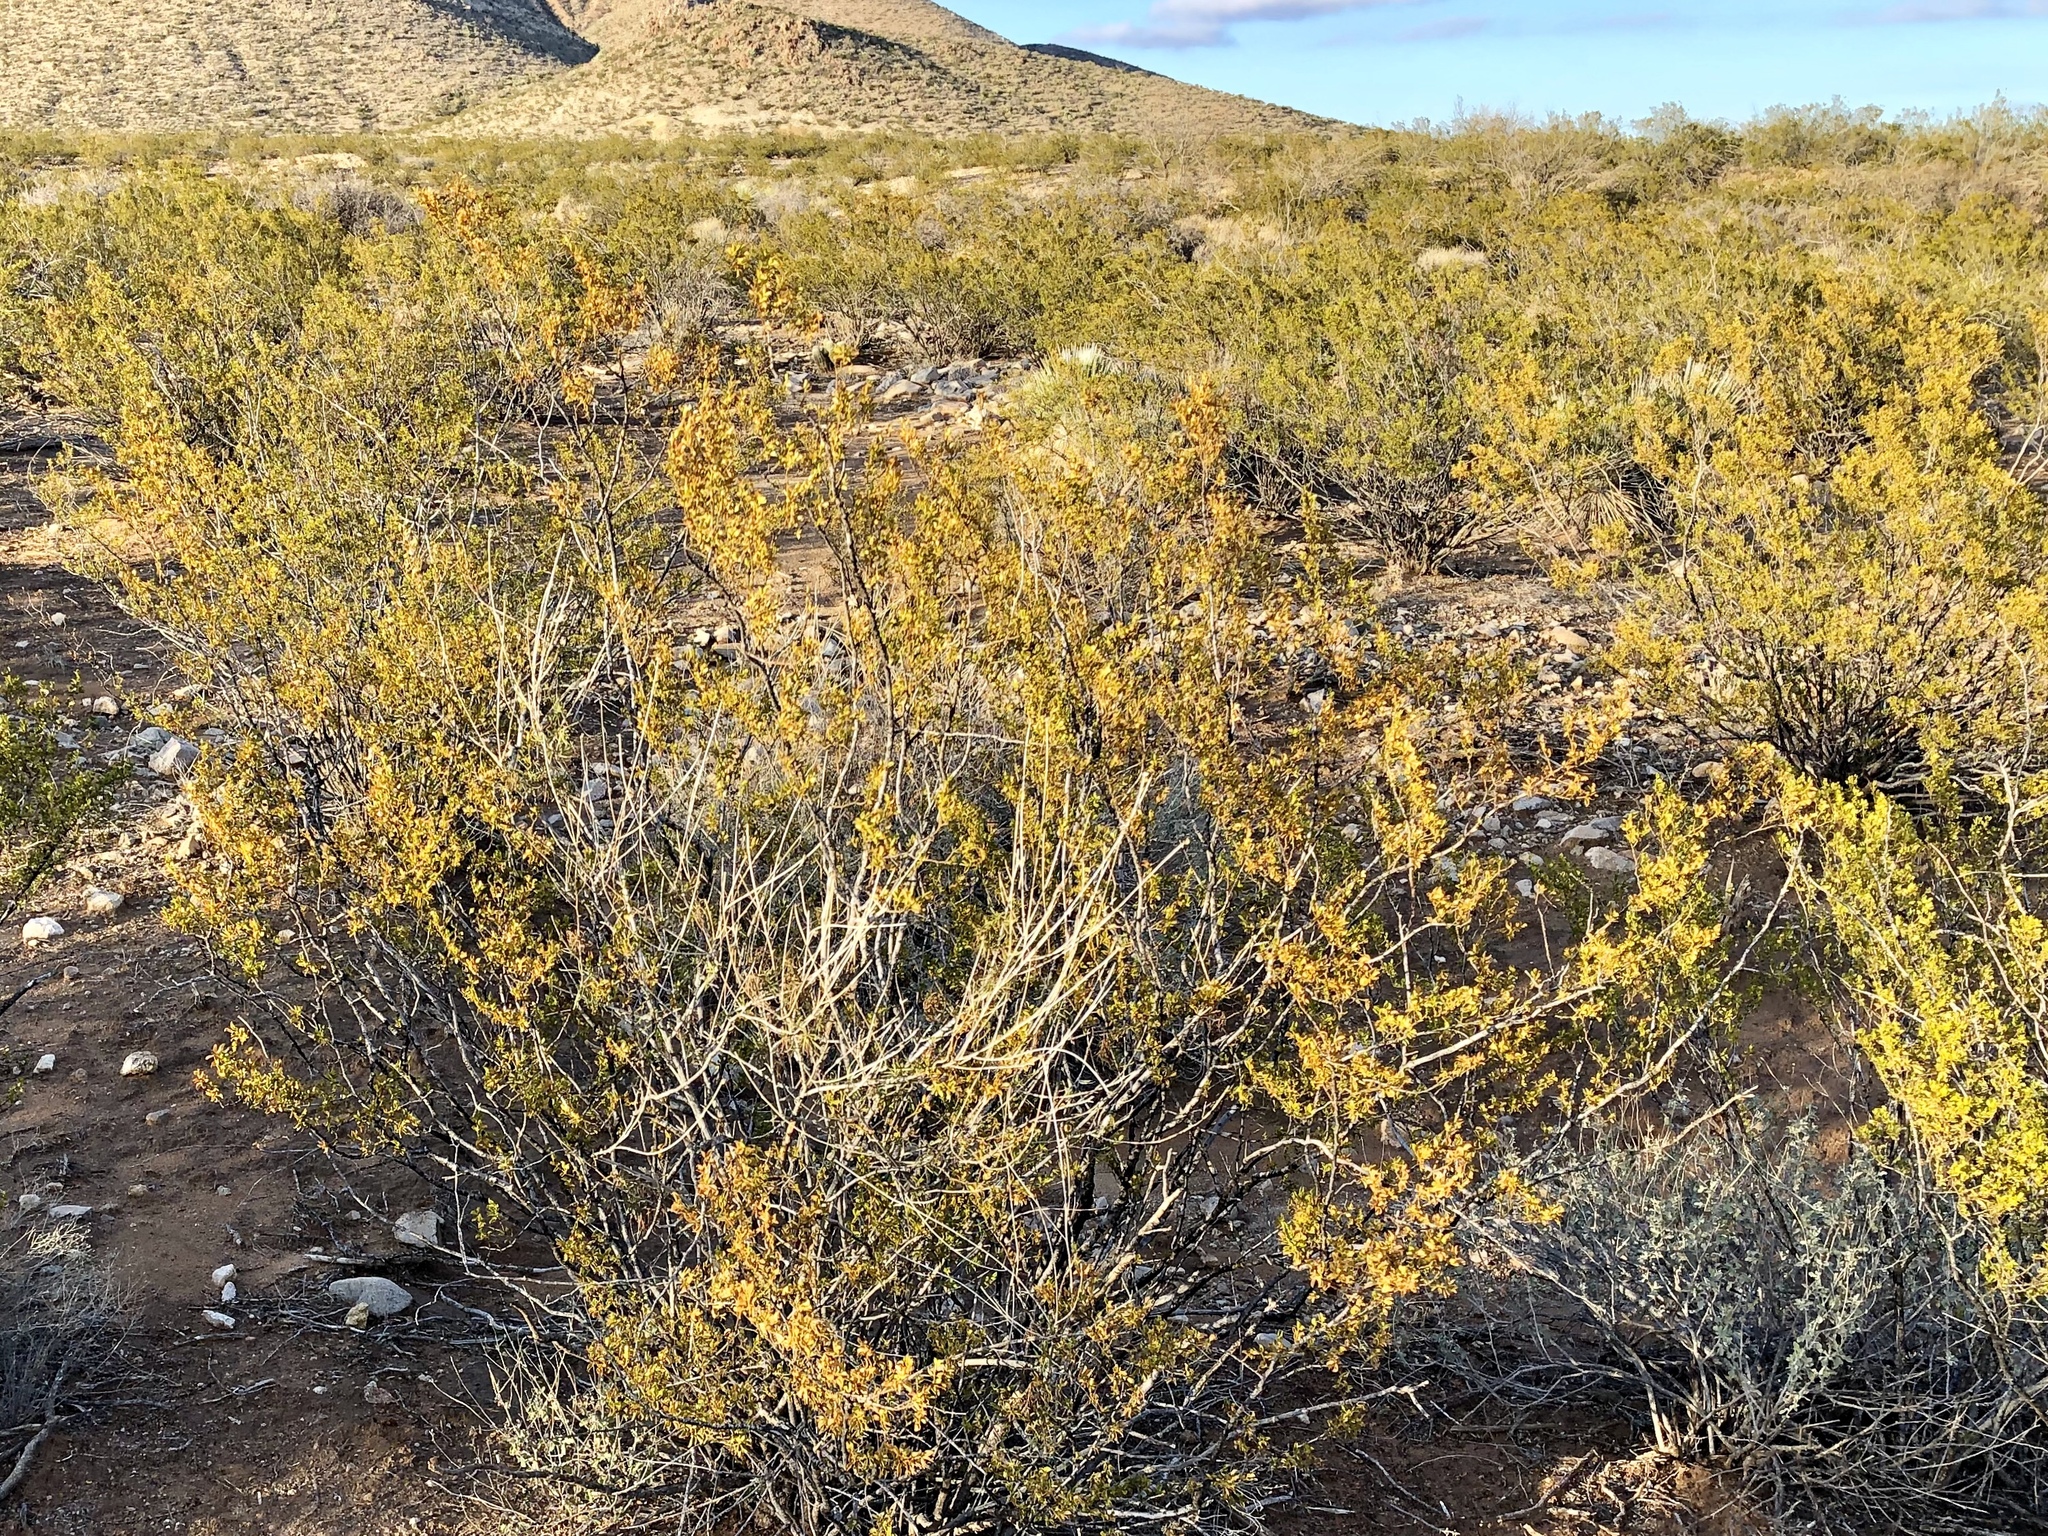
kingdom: Plantae
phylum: Tracheophyta
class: Magnoliopsida
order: Zygophyllales
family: Zygophyllaceae
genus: Larrea
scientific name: Larrea tridentata
